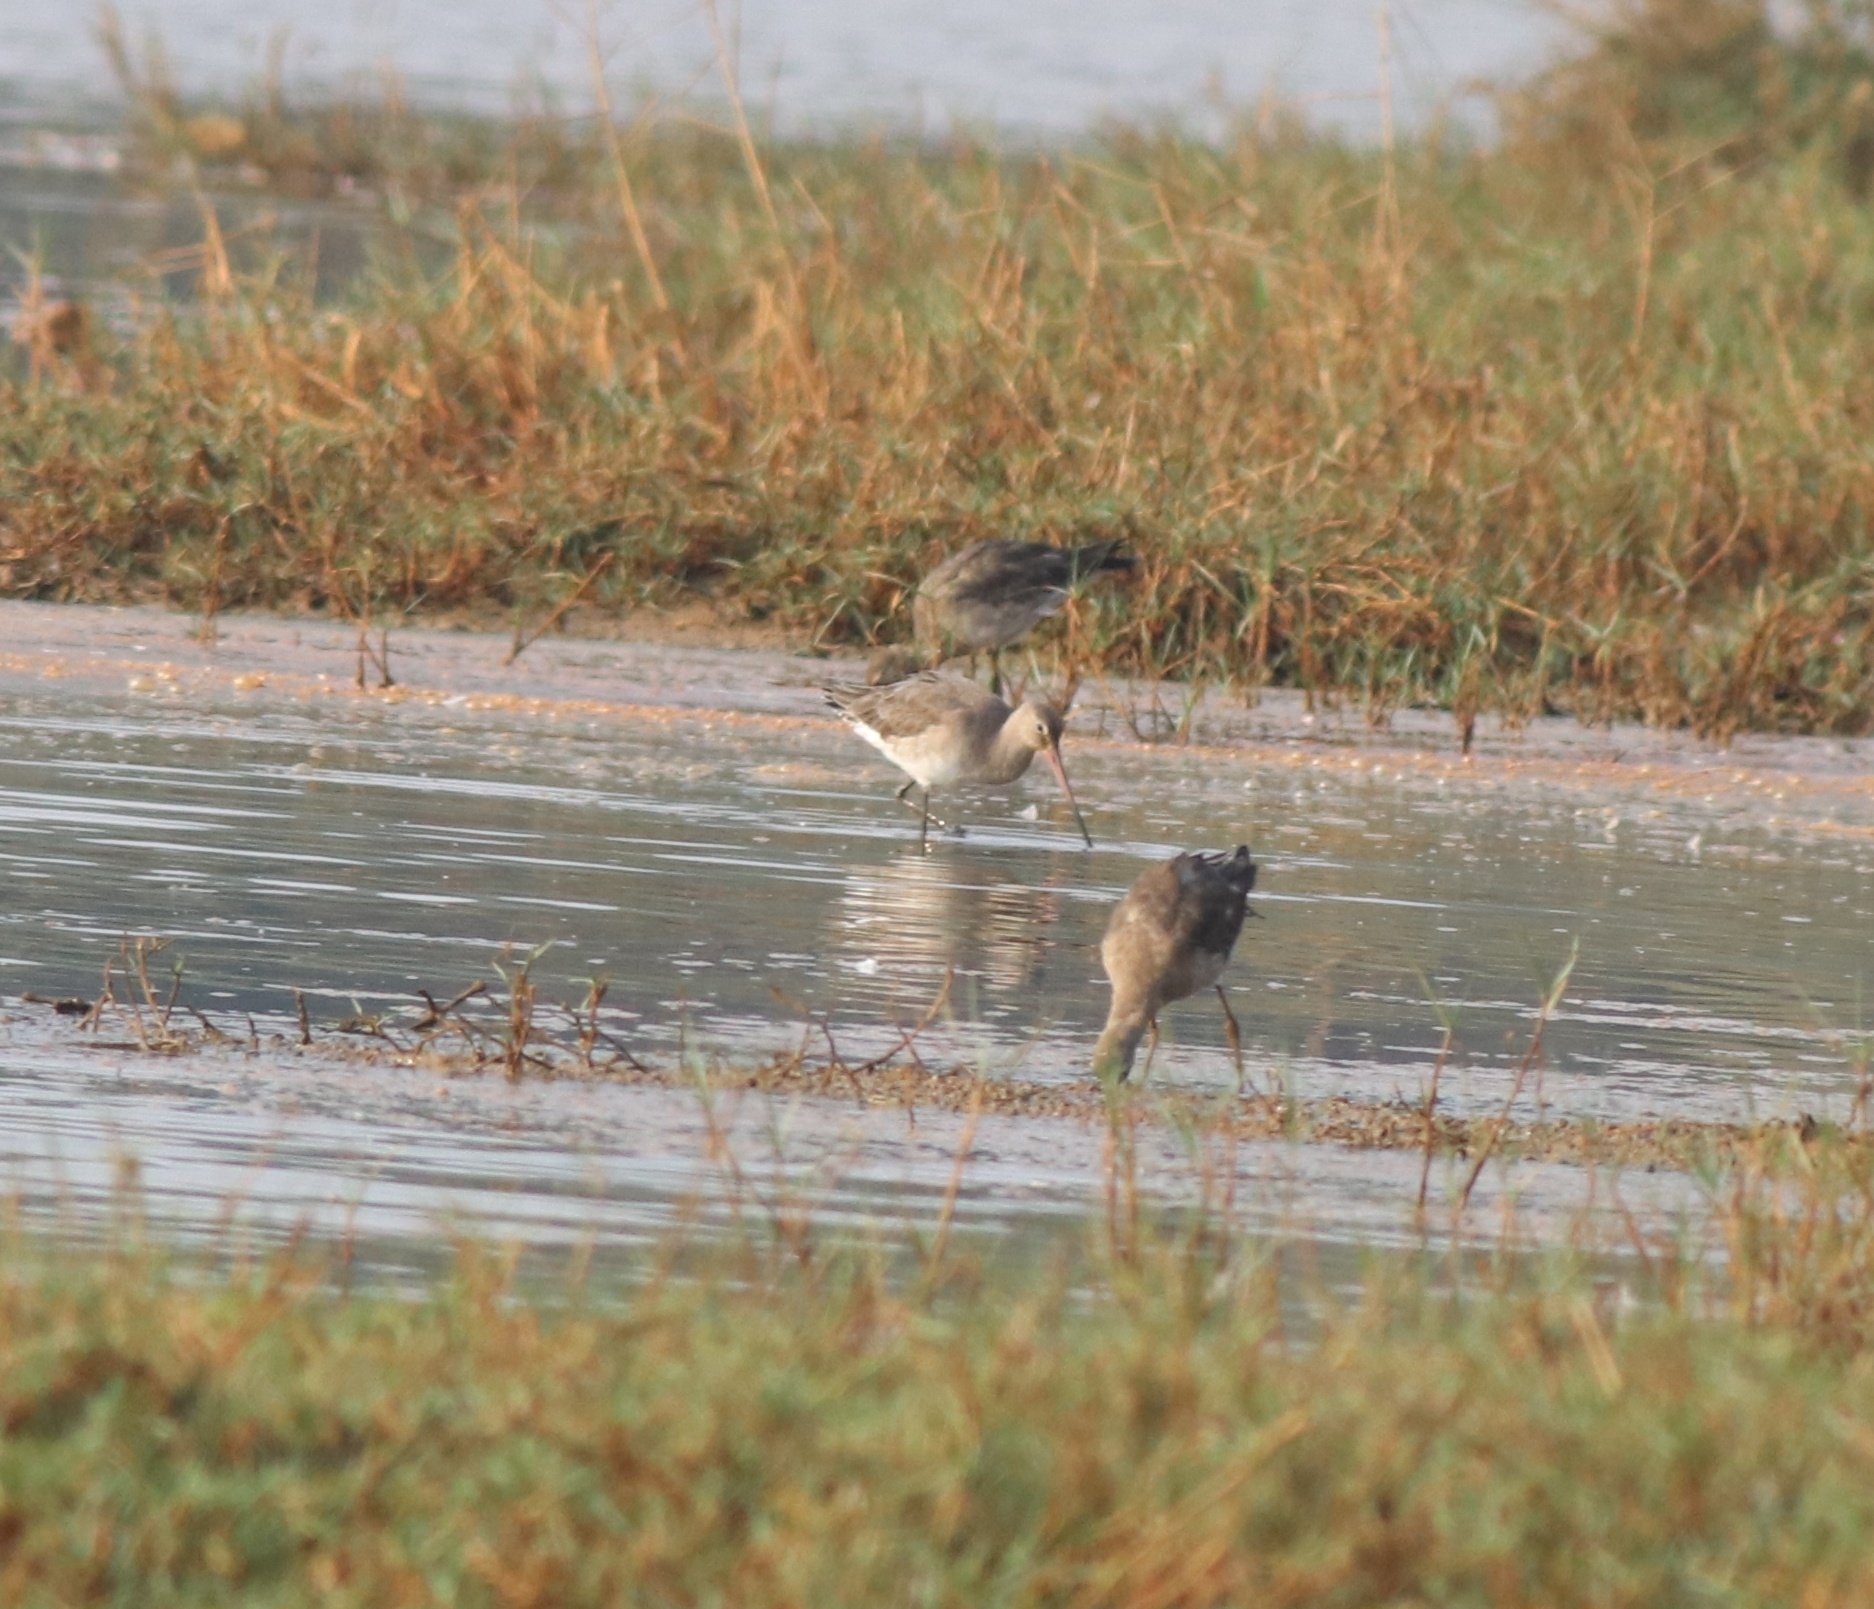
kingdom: Animalia
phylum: Chordata
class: Aves
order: Charadriiformes
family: Scolopacidae
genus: Limosa
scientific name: Limosa limosa
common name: Black-tailed godwit
